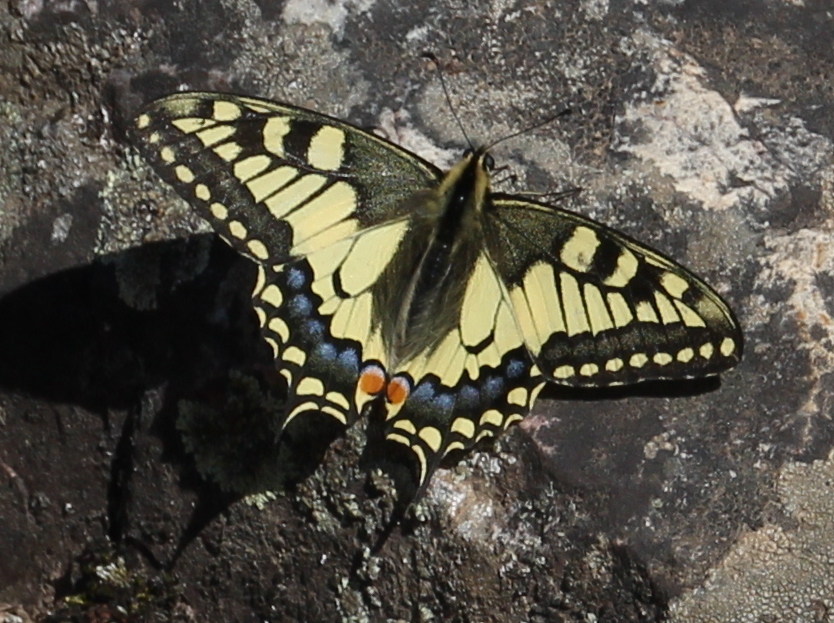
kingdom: Animalia
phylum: Arthropoda
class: Insecta
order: Lepidoptera
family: Papilionidae
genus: Papilio
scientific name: Papilio machaon
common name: Swallowtail
